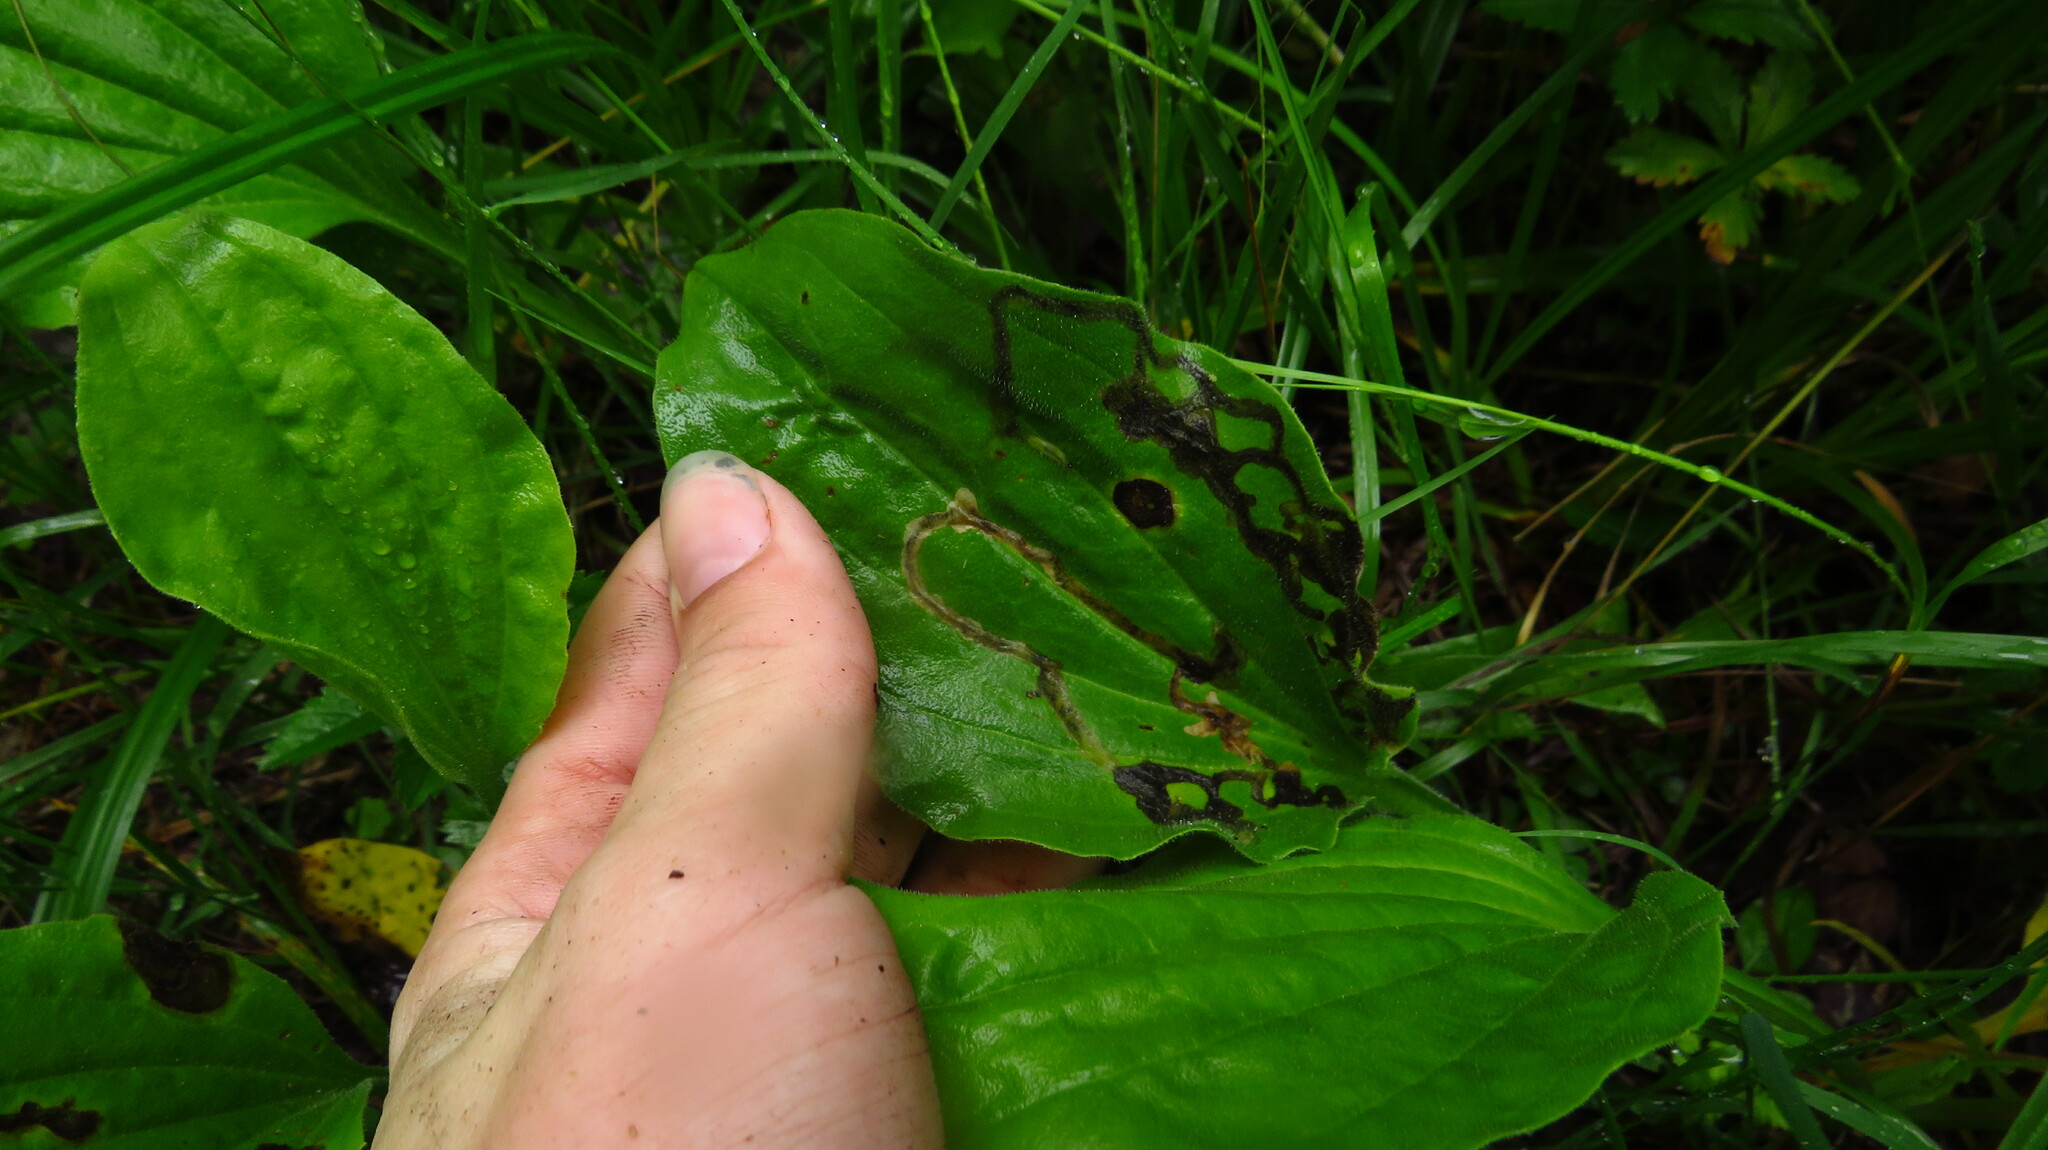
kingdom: Animalia
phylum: Arthropoda
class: Insecta
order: Coleoptera
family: Chrysomelidae
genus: Dibolia
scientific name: Dibolia borealis
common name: Northern plantain flea beetle
